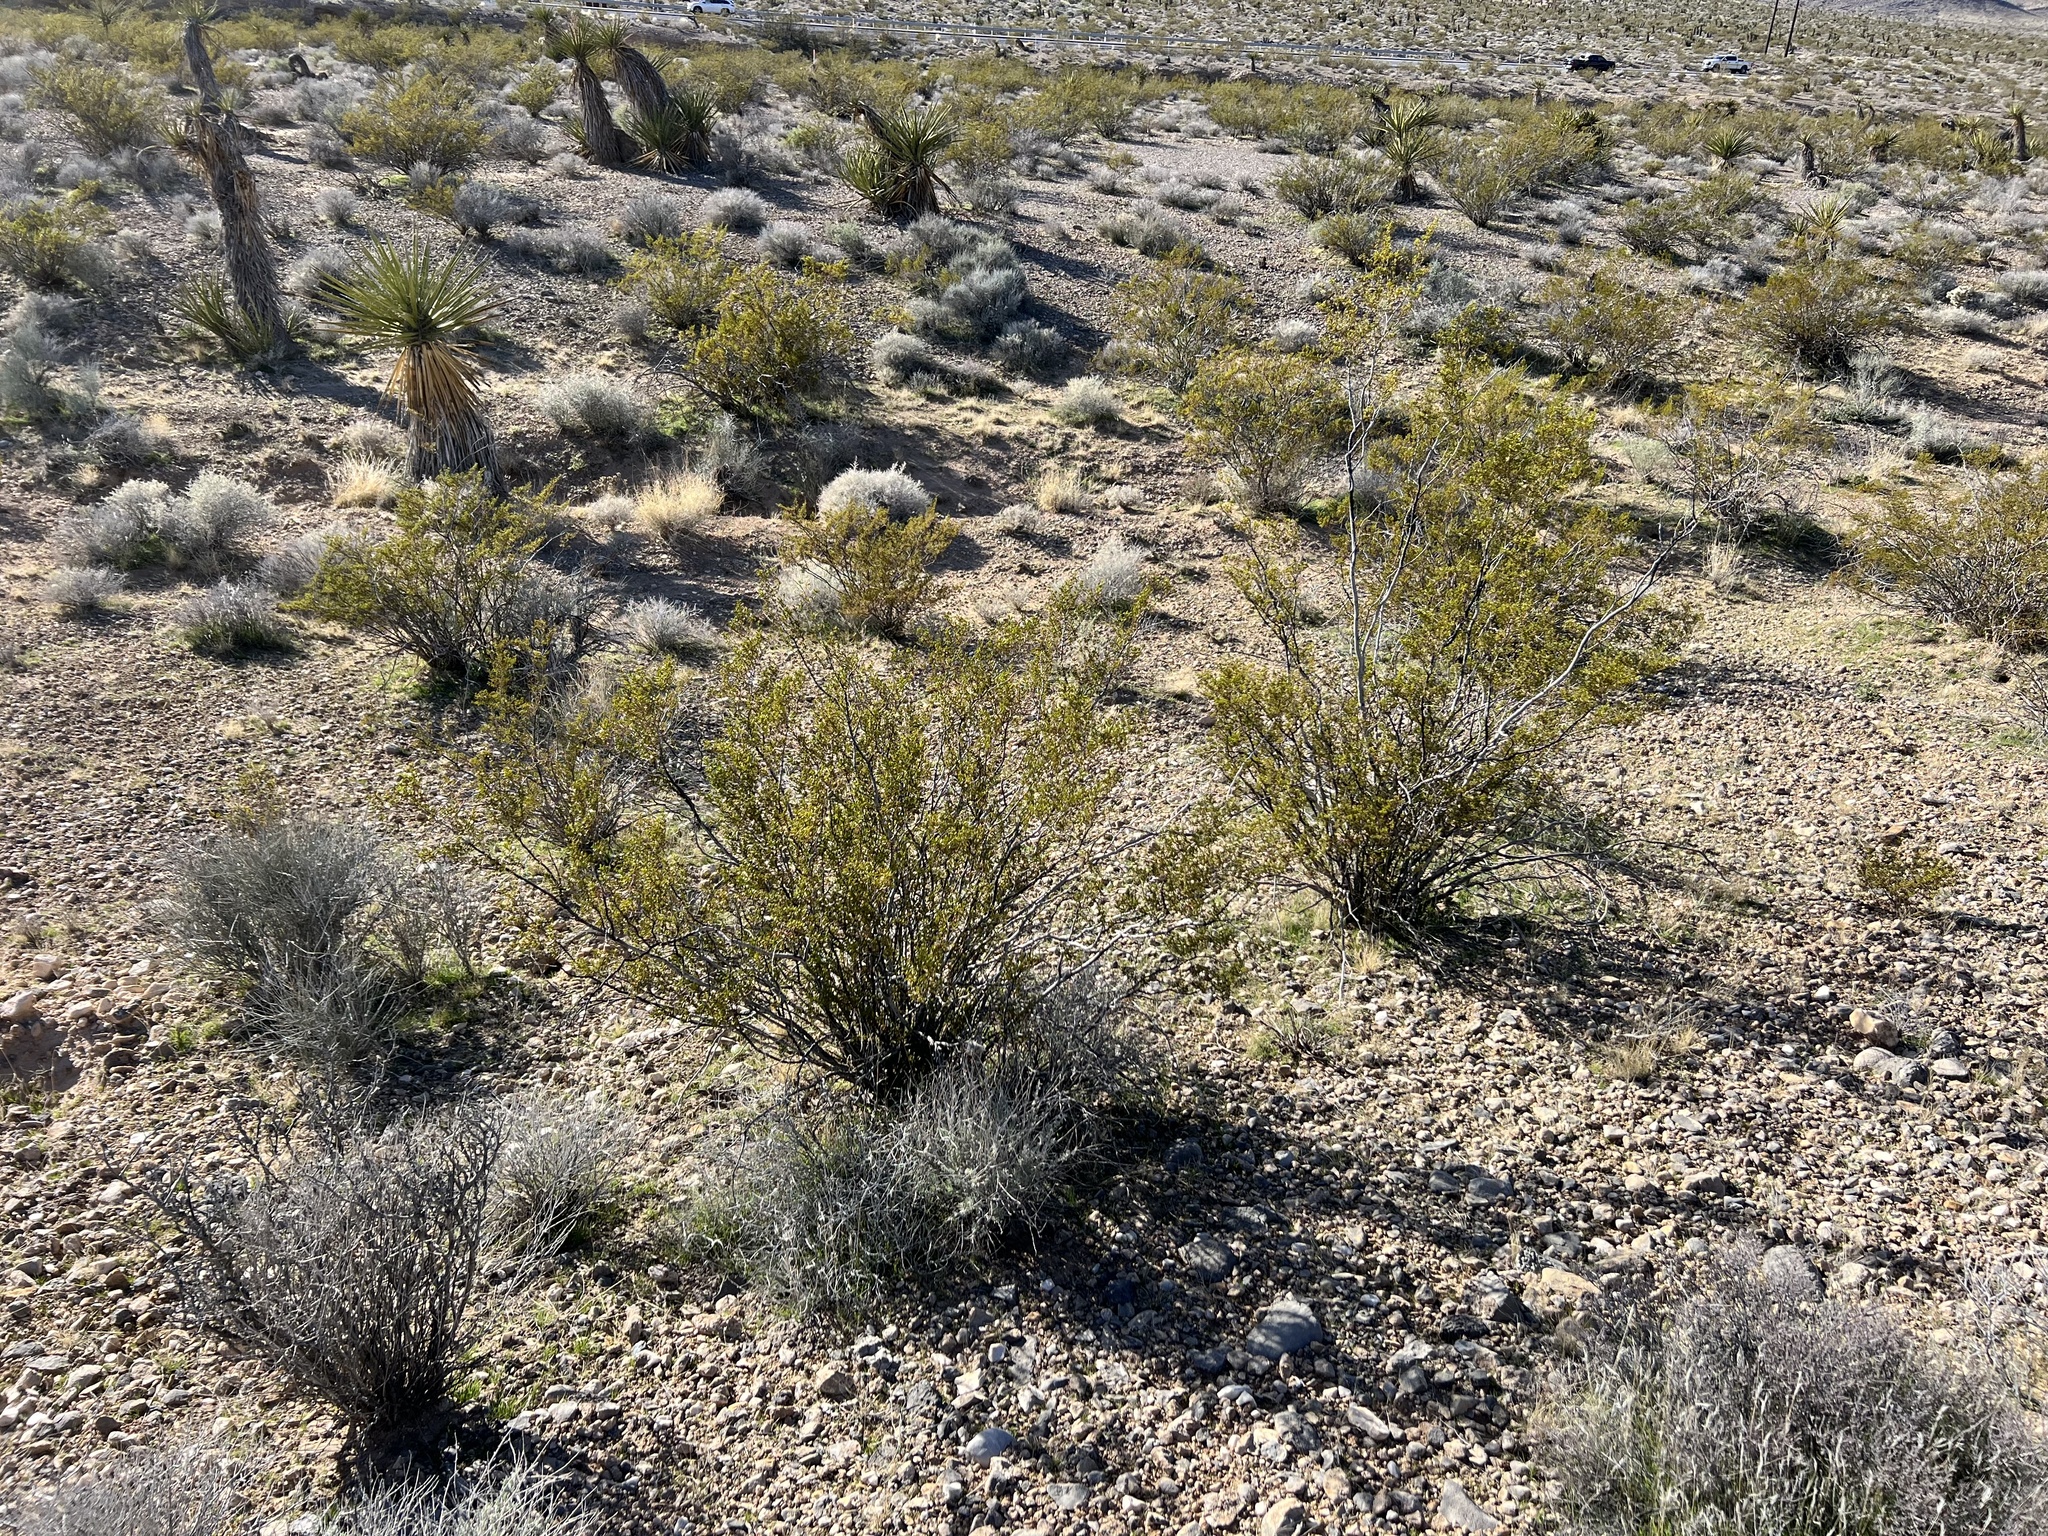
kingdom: Plantae
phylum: Tracheophyta
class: Magnoliopsida
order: Zygophyllales
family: Zygophyllaceae
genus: Larrea
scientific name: Larrea tridentata
